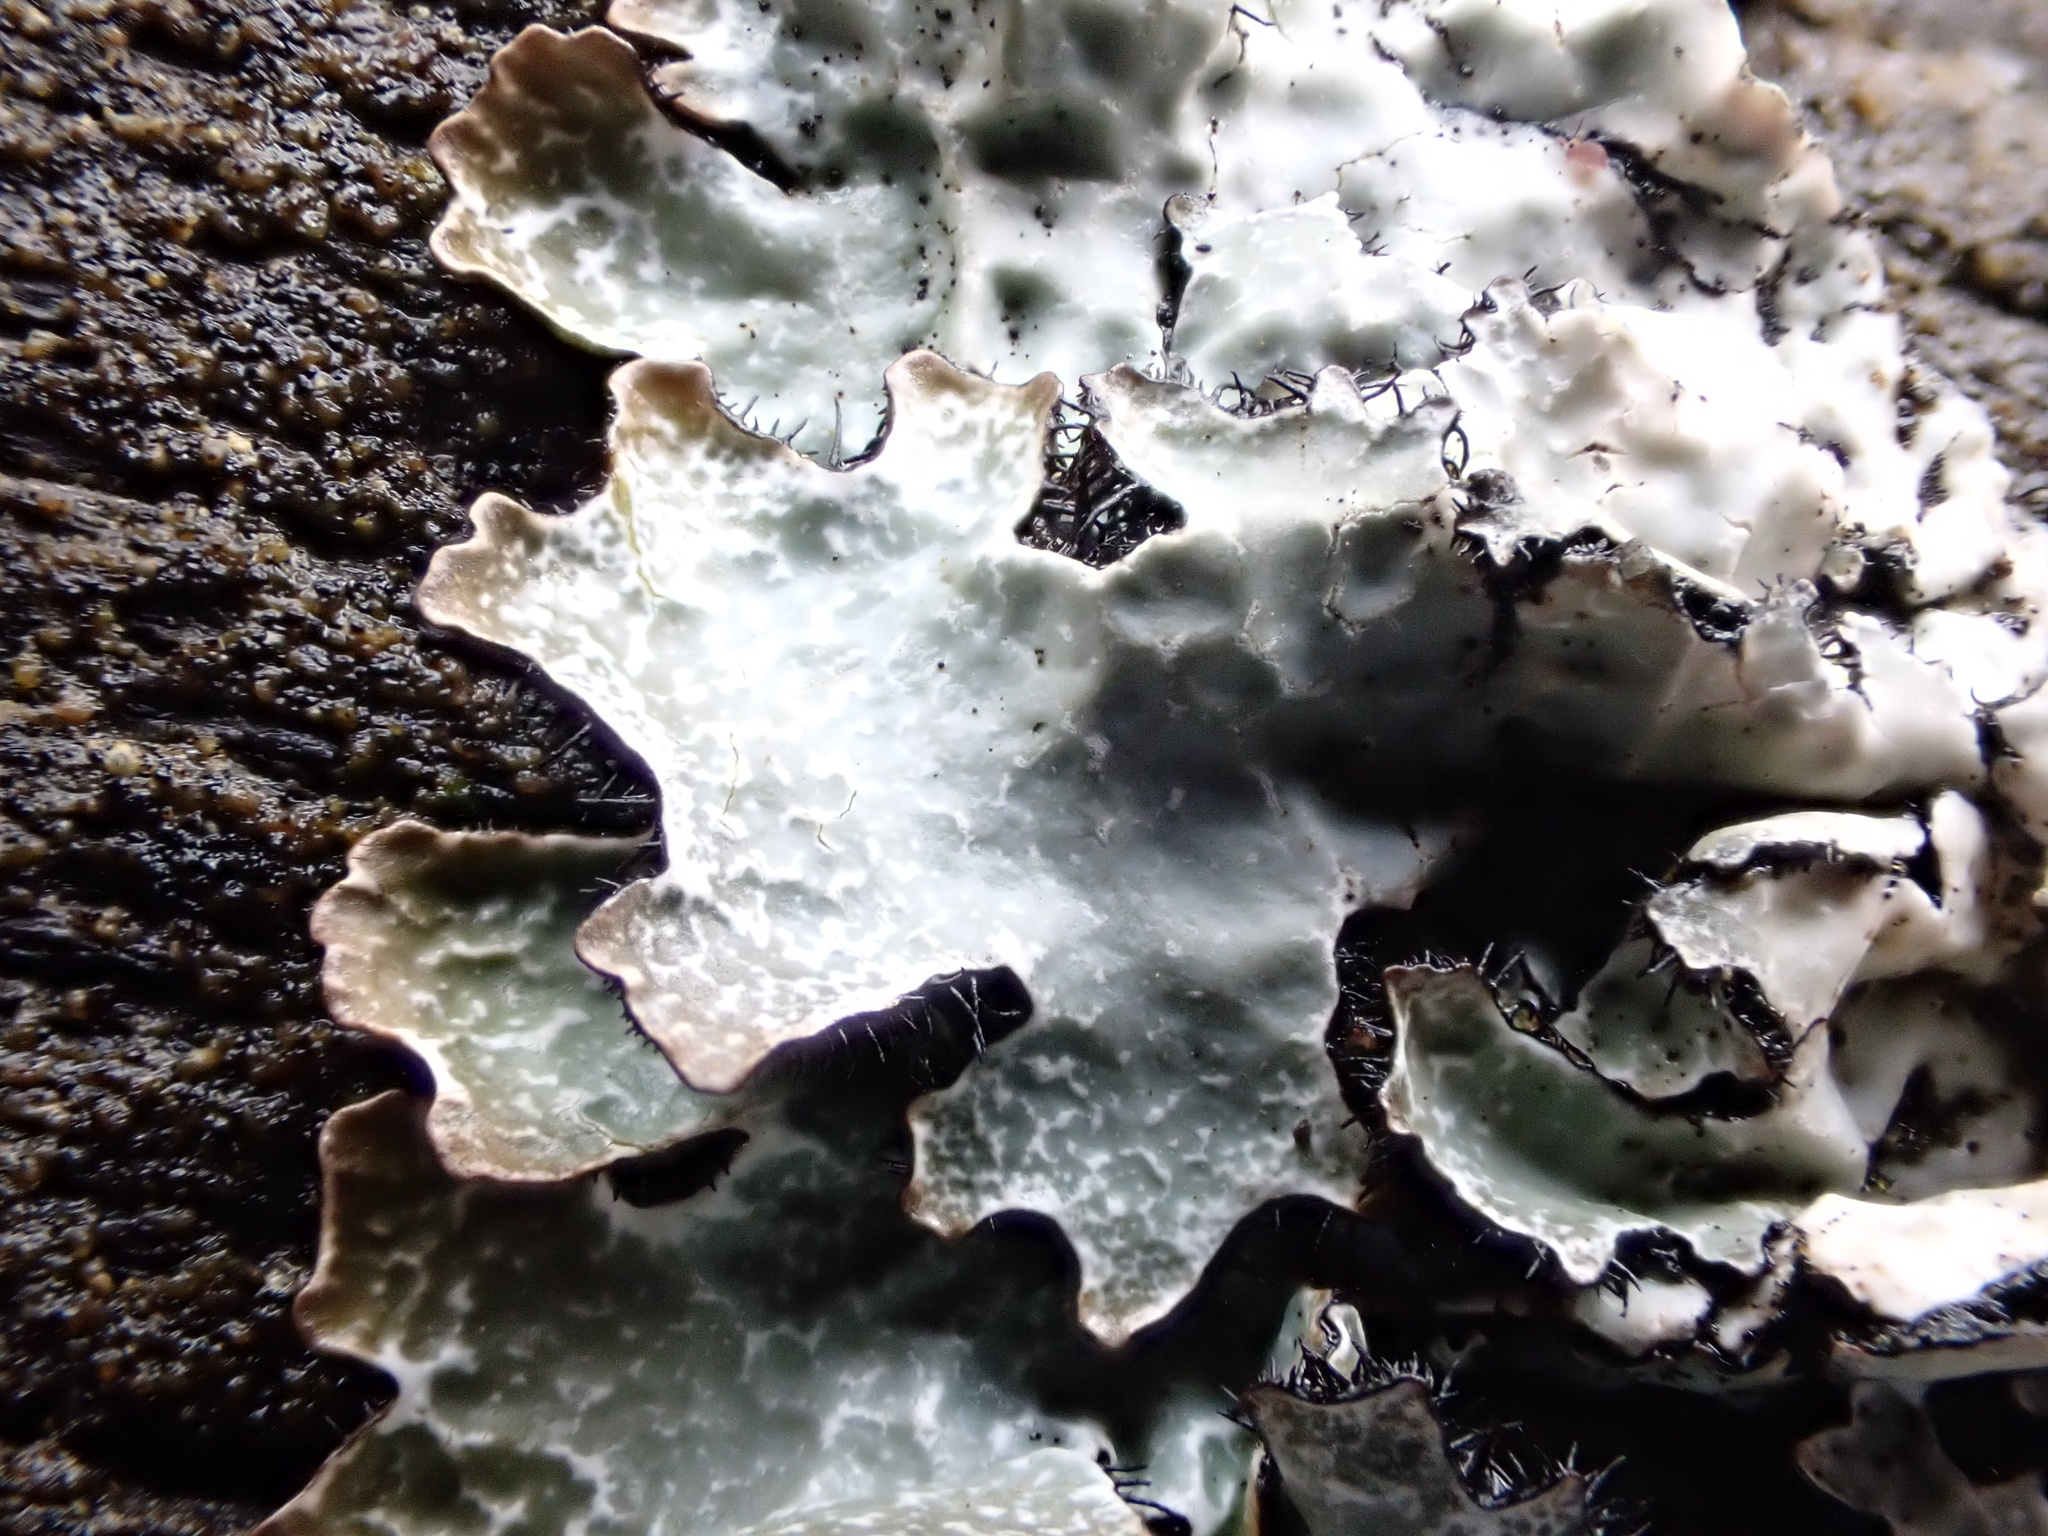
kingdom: Fungi
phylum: Ascomycota
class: Lecanoromycetes
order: Lecanorales
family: Parmeliaceae
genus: Parmelia
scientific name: Parmelia sulcata
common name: Netted shield lichen
